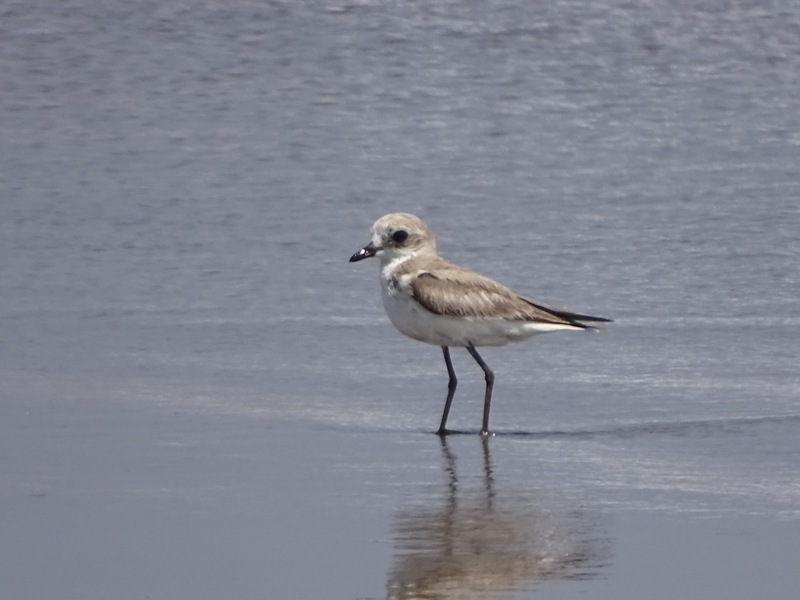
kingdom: Animalia
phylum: Chordata
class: Aves
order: Charadriiformes
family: Charadriidae
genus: Anarhynchus
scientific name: Anarhynchus
